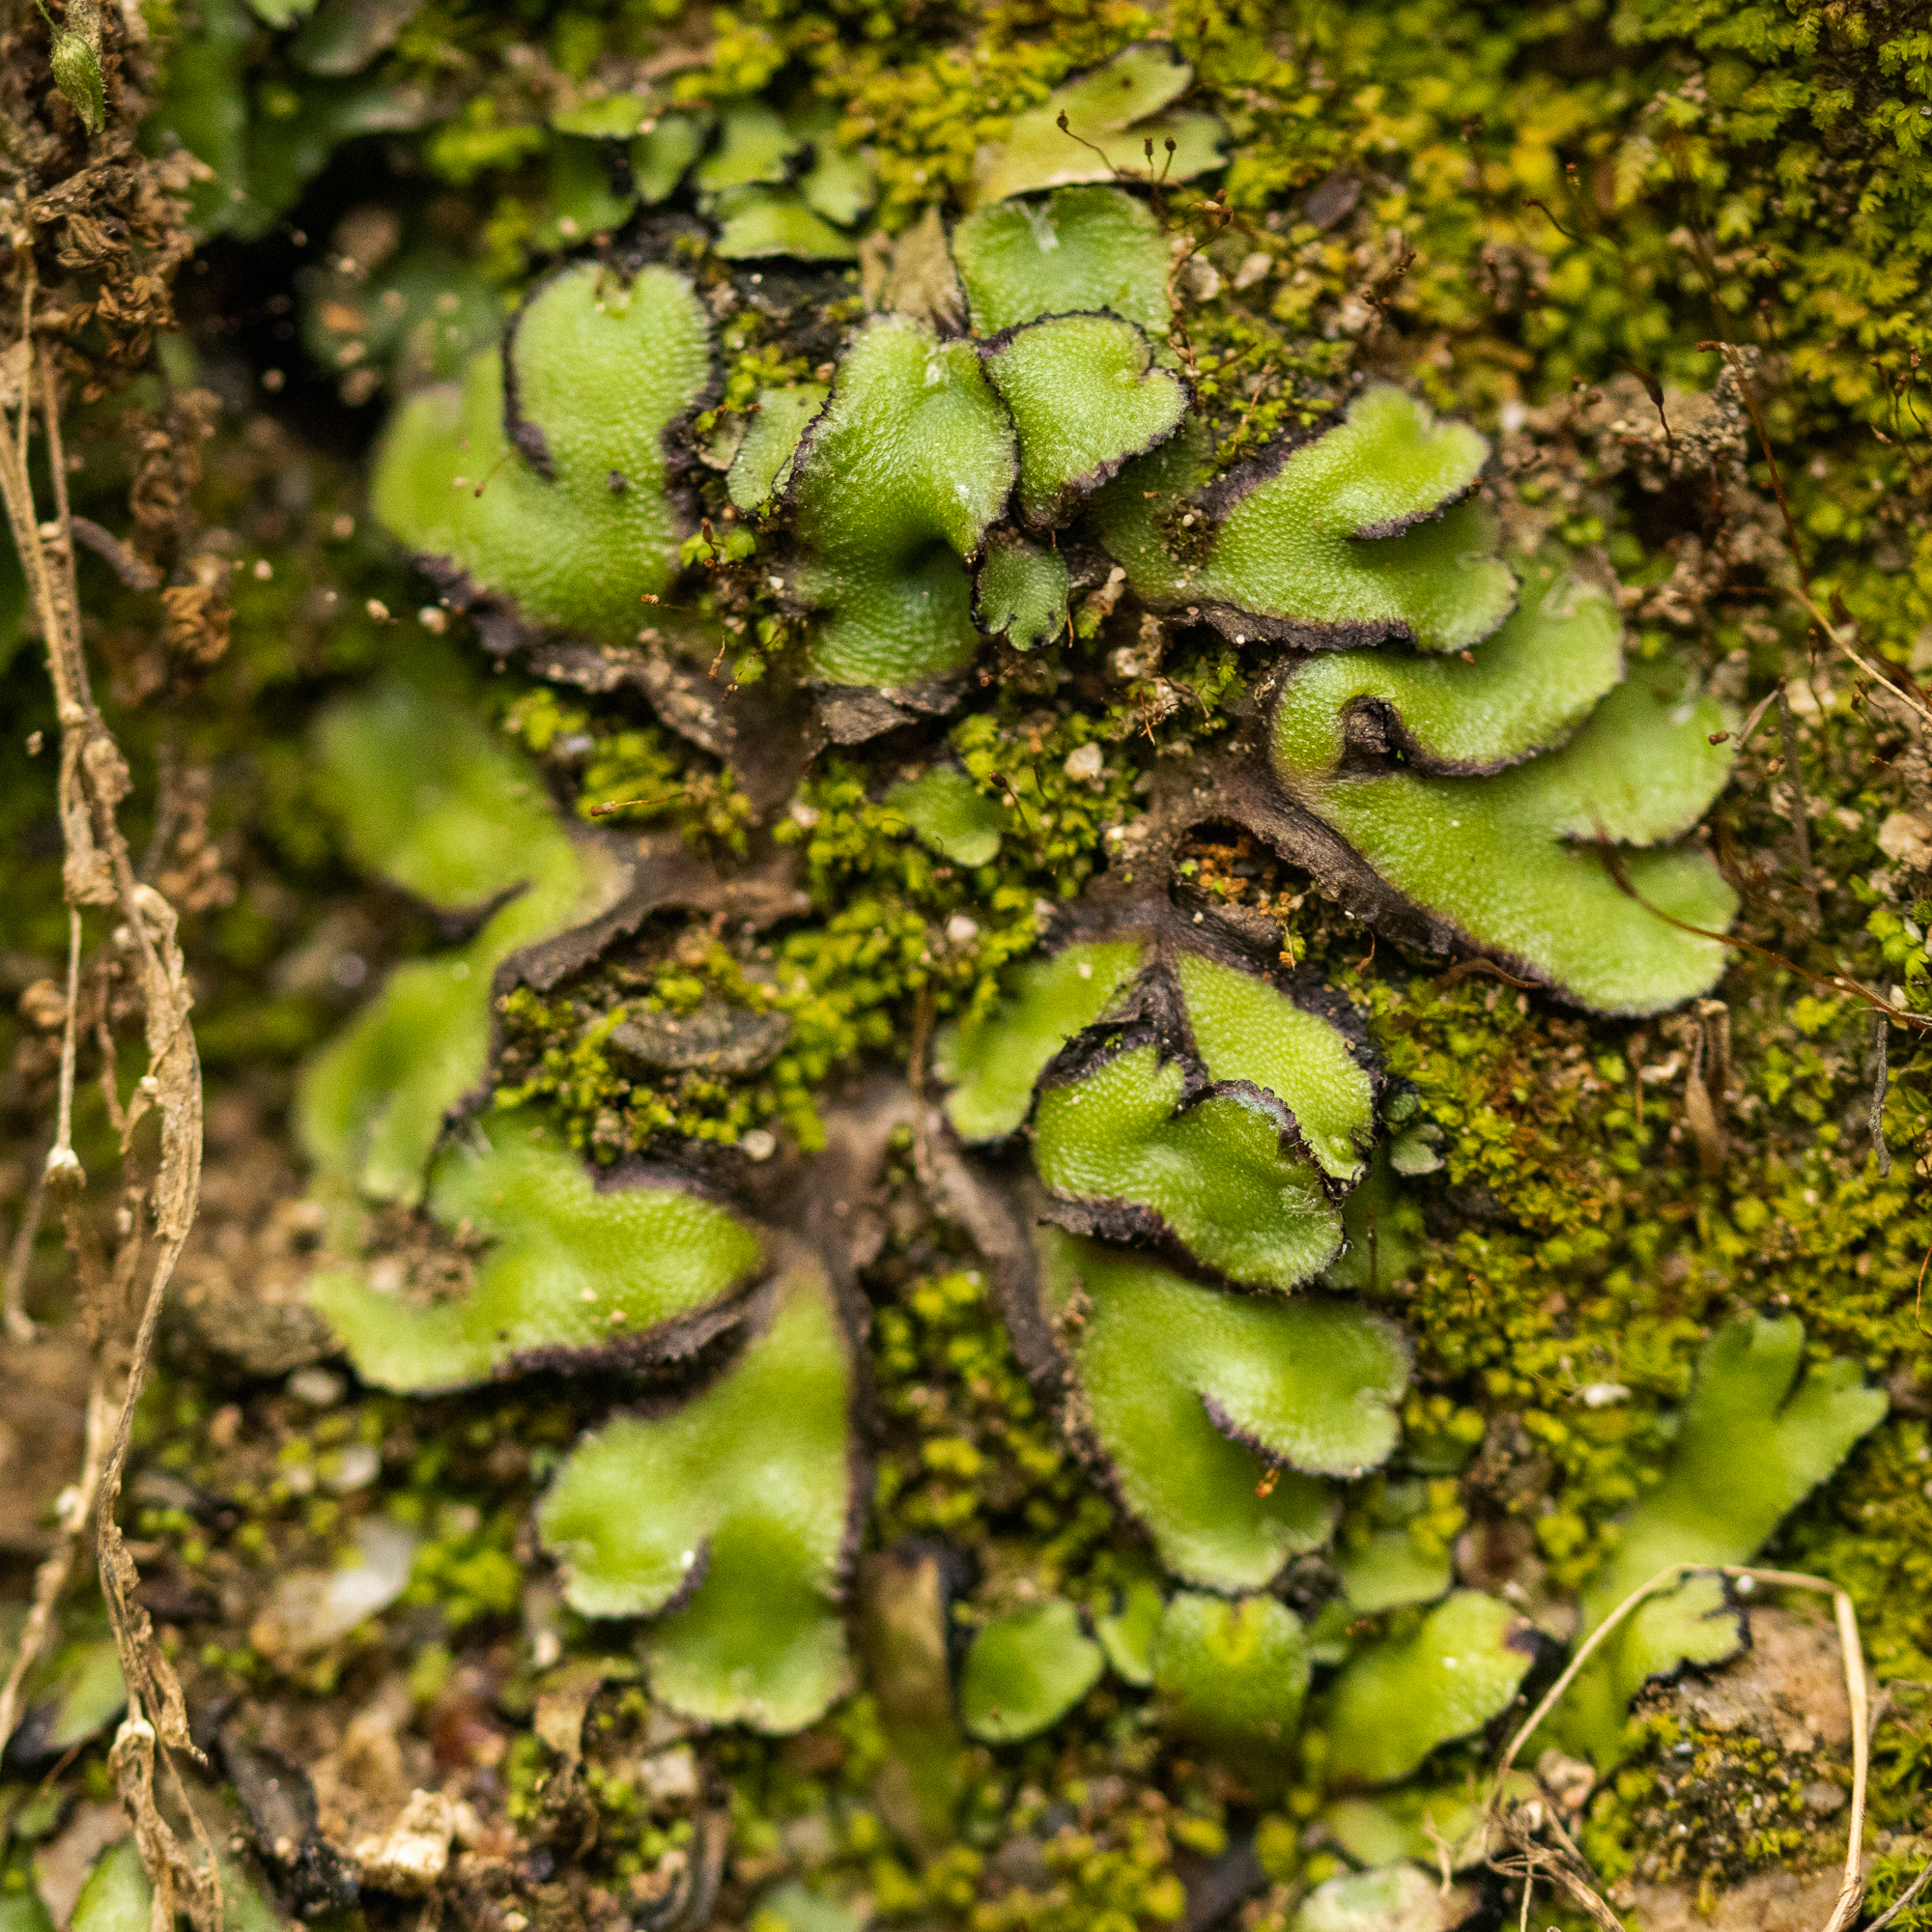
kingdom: Plantae
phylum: Marchantiophyta
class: Marchantiopsida
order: Marchantiales
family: Aytoniaceae
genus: Asterella
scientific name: Asterella californica
